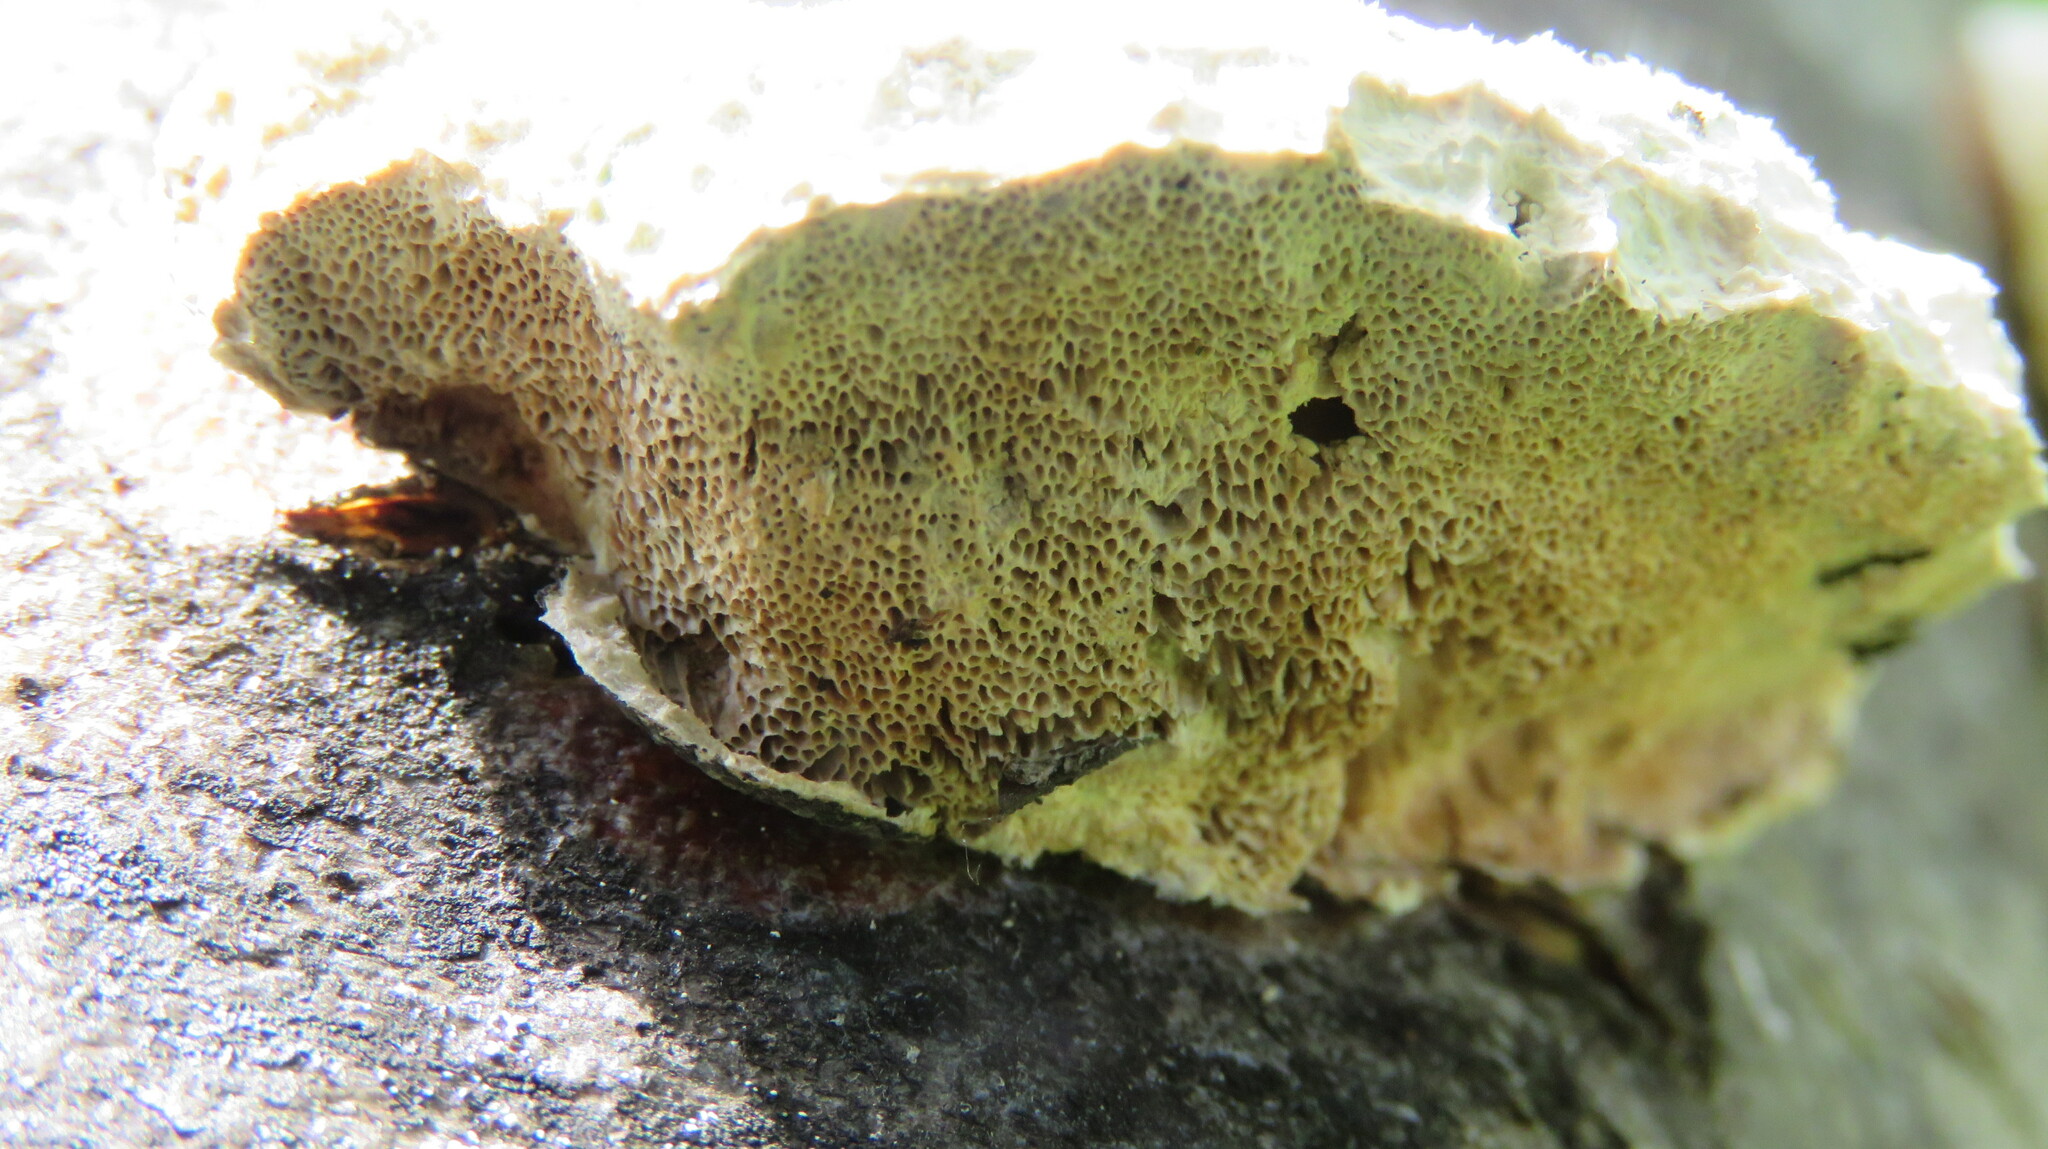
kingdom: Fungi
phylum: Basidiomycota
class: Agaricomycetes
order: Polyporales
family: Incrustoporiaceae
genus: Tyromyces
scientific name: Tyromyces chioneus
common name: White cheese polypore
